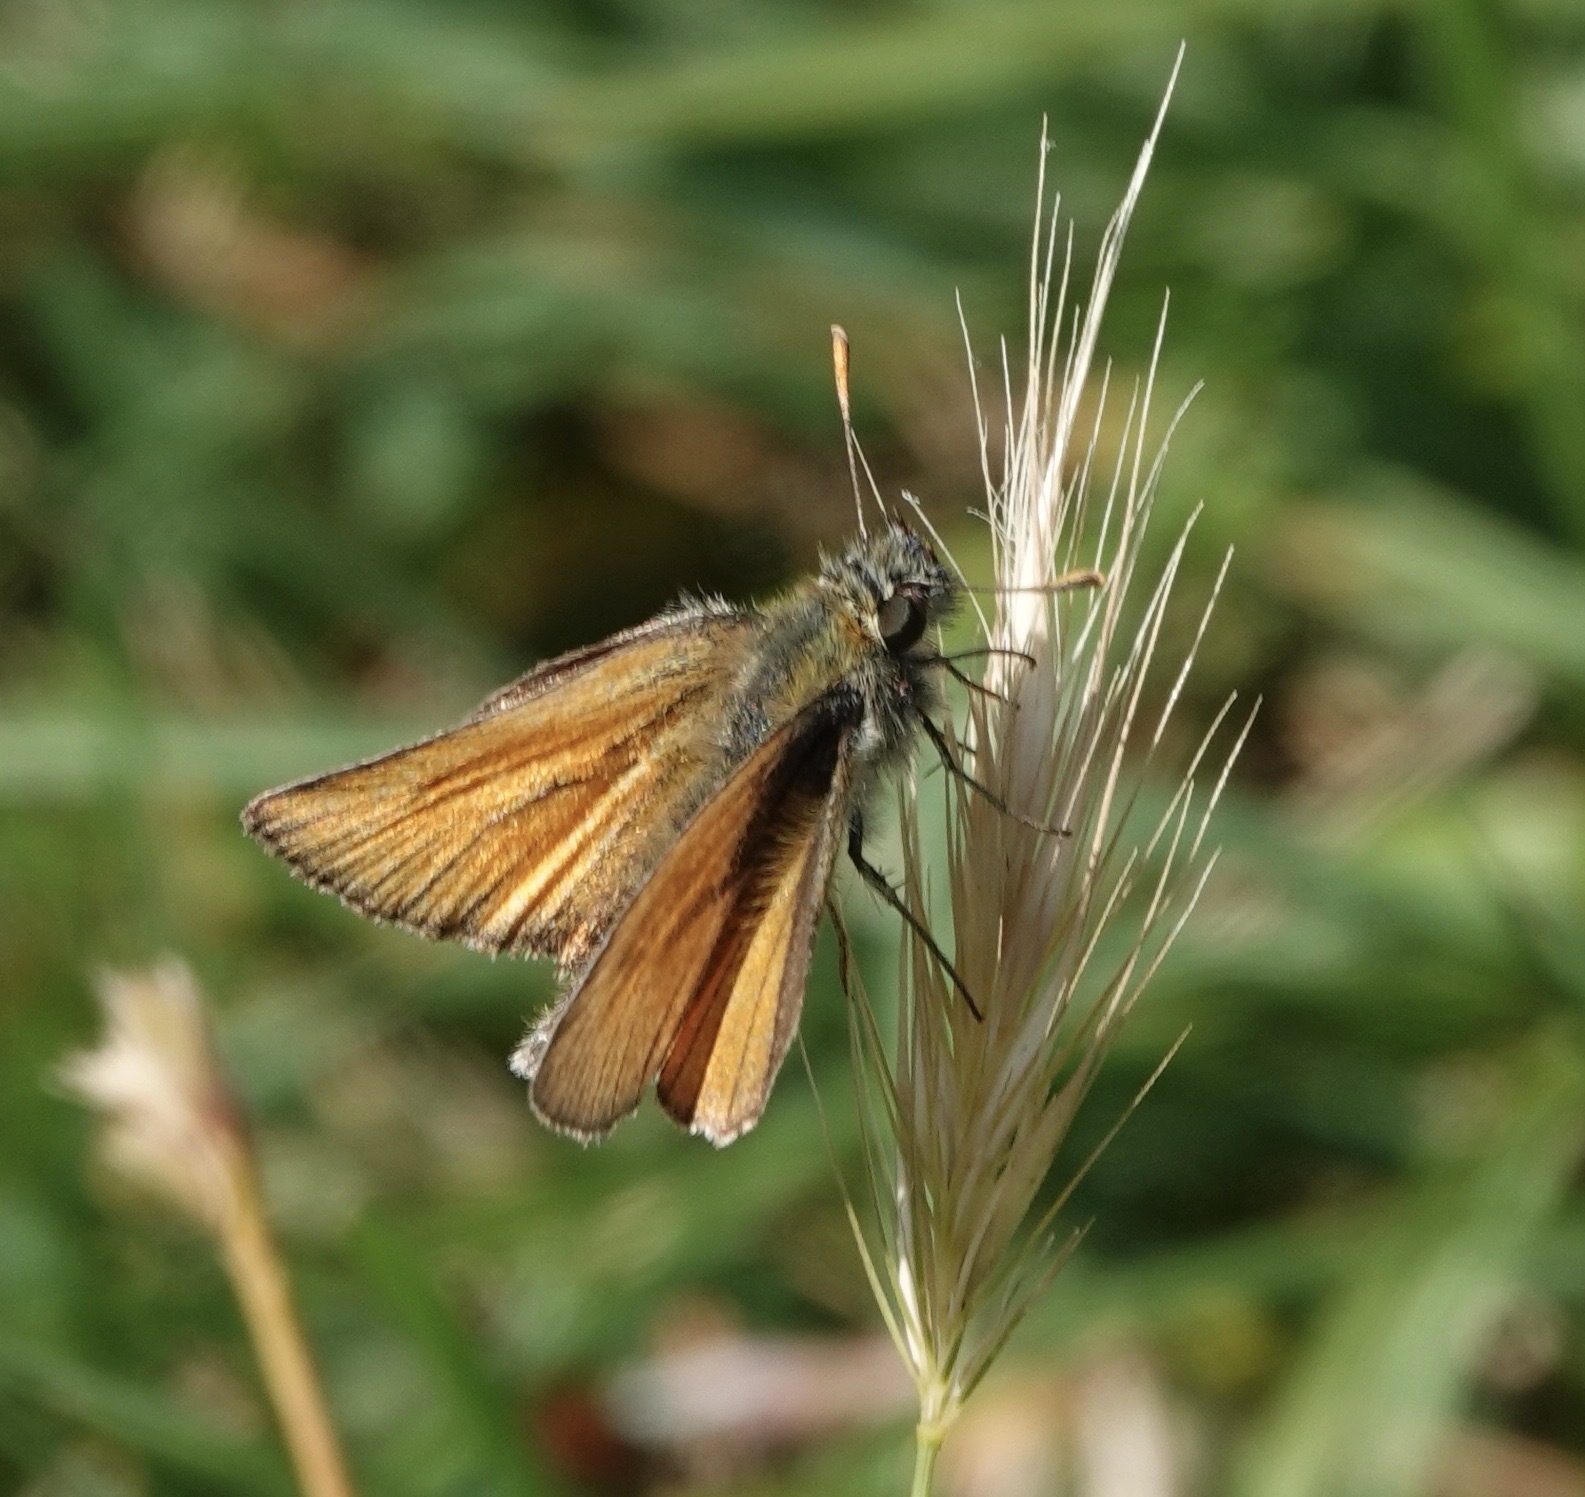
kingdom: Animalia
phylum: Arthropoda
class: Insecta
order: Lepidoptera
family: Hesperiidae
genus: Thymelicus
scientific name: Thymelicus sylvestris
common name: Small skipper
